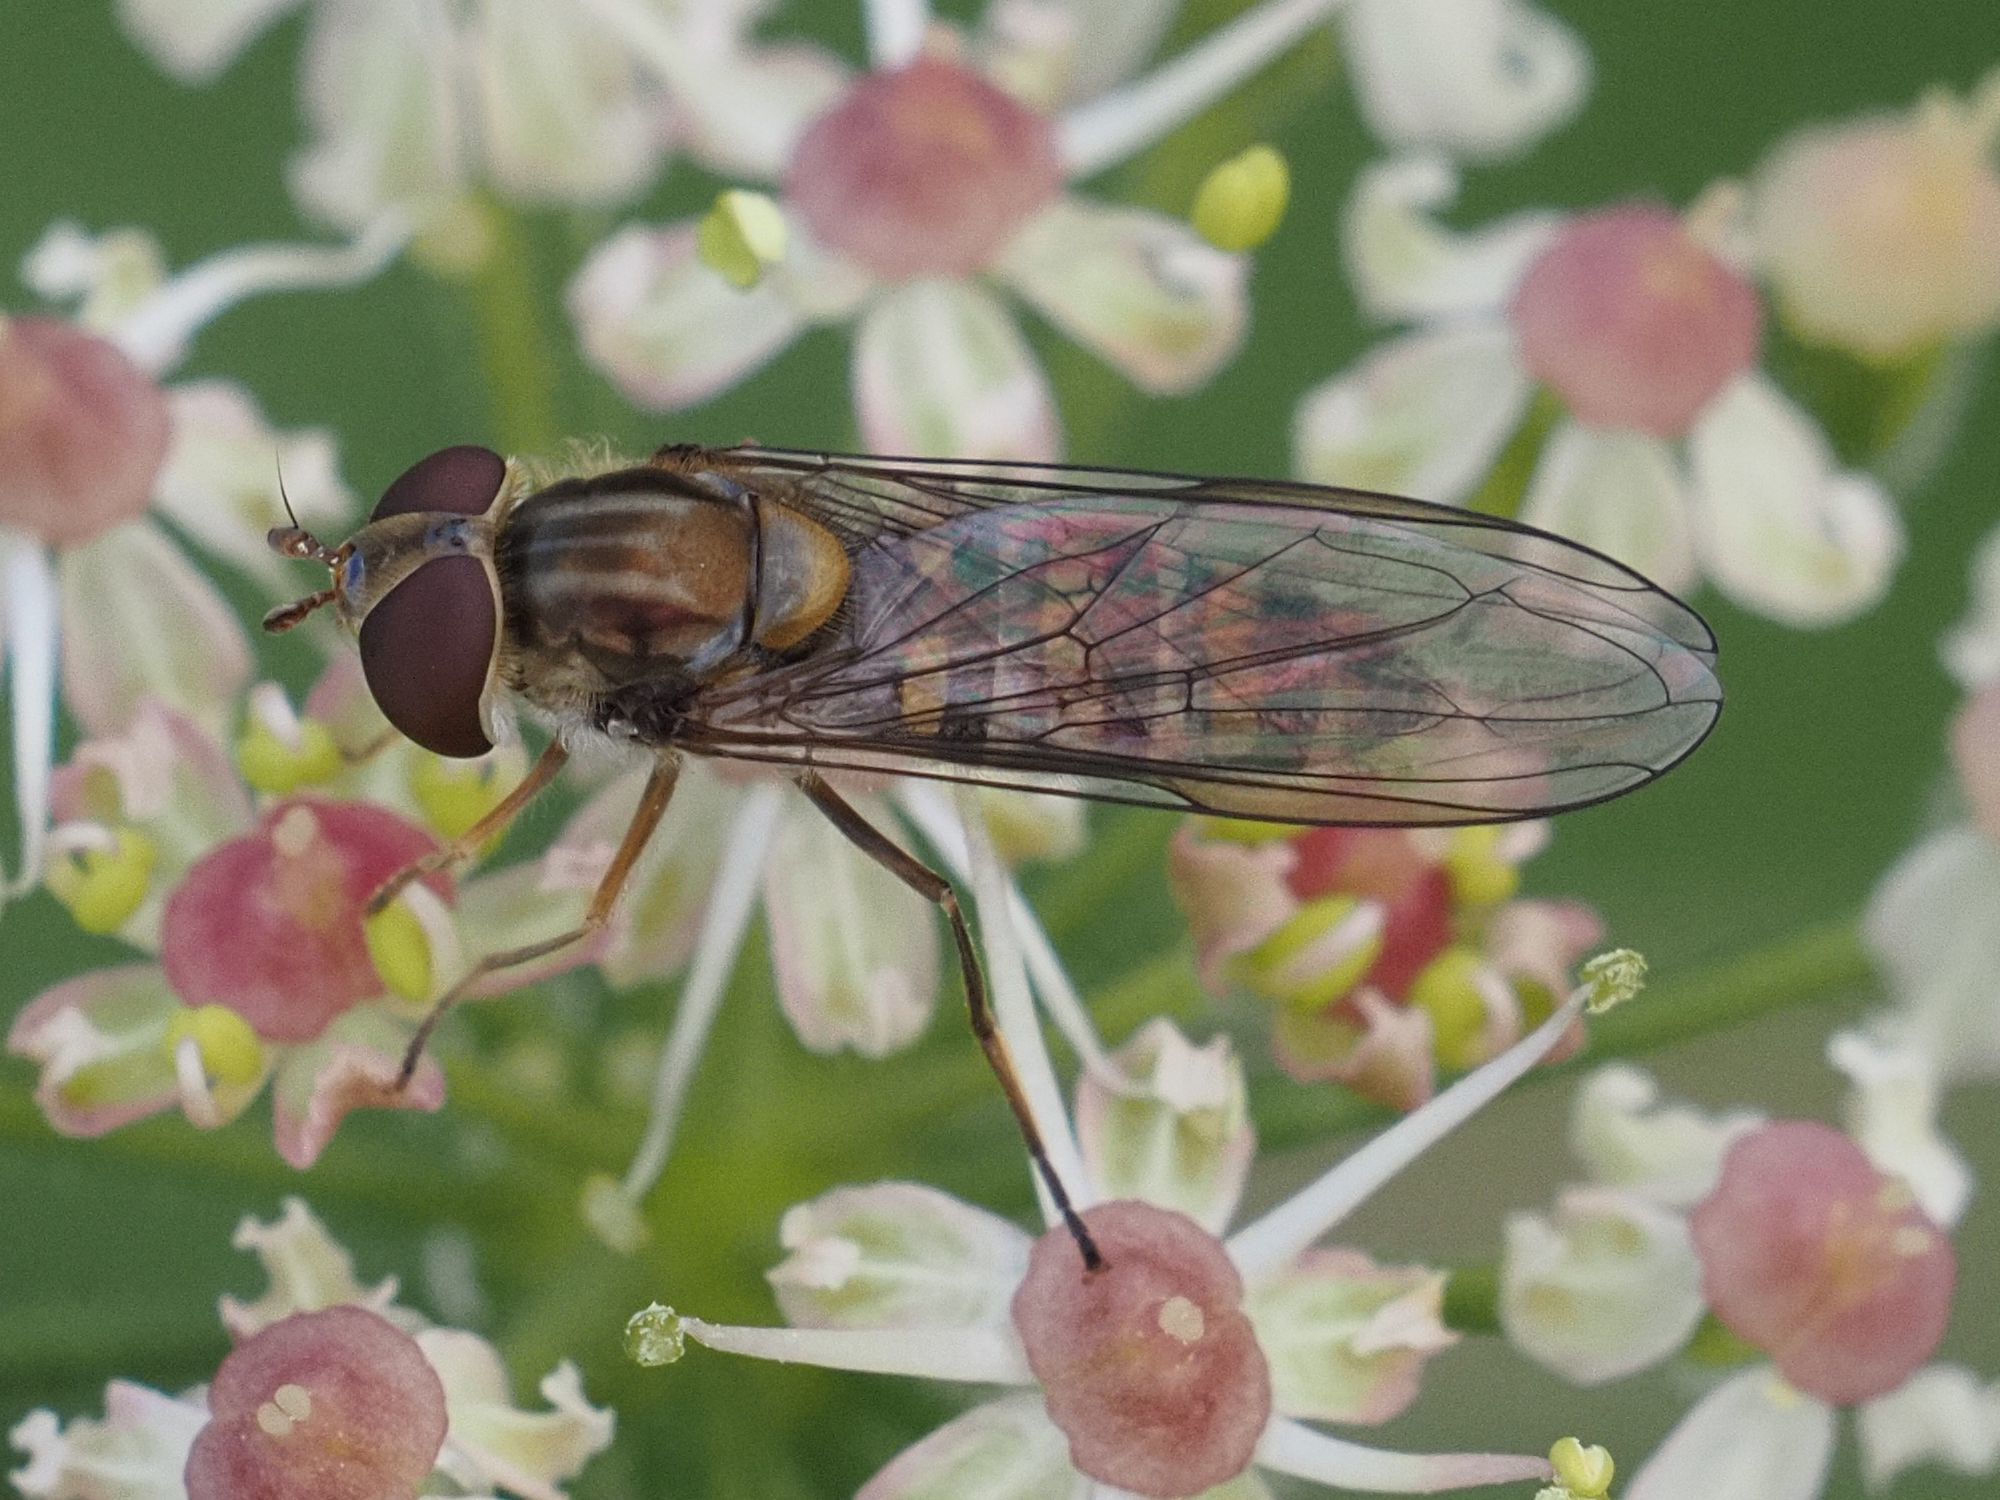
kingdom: Animalia
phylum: Arthropoda
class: Insecta
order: Diptera
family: Syrphidae
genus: Episyrphus
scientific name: Episyrphus balteatus
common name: Marmalade hoverfly
